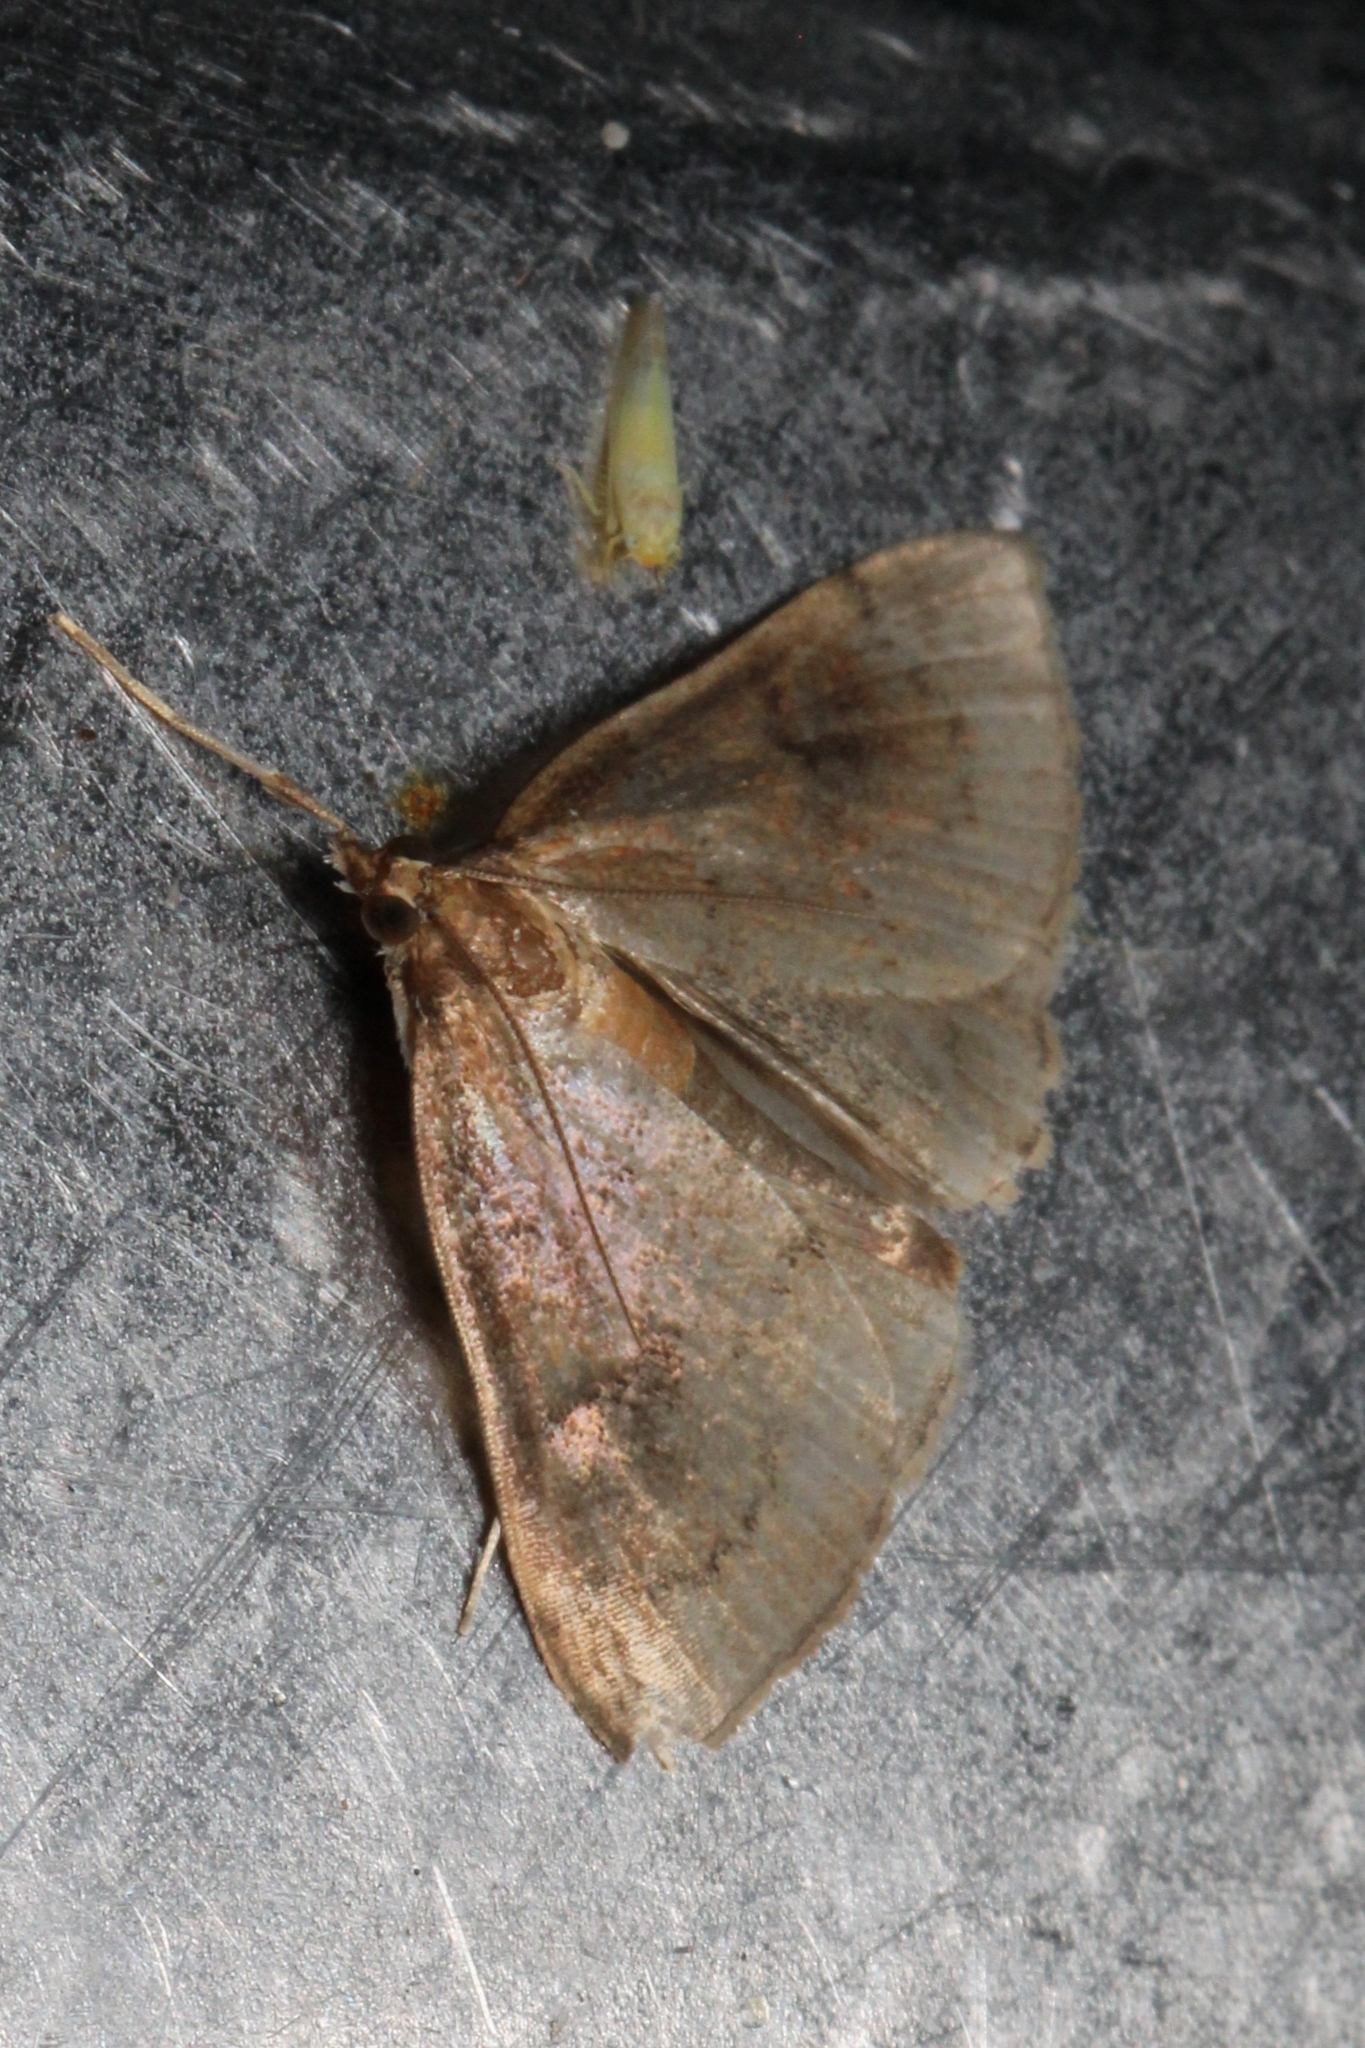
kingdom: Animalia
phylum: Arthropoda
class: Insecta
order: Lepidoptera
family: Crambidae
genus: Fumibotys
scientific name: Fumibotys fumalis
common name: Mint root borer moth
